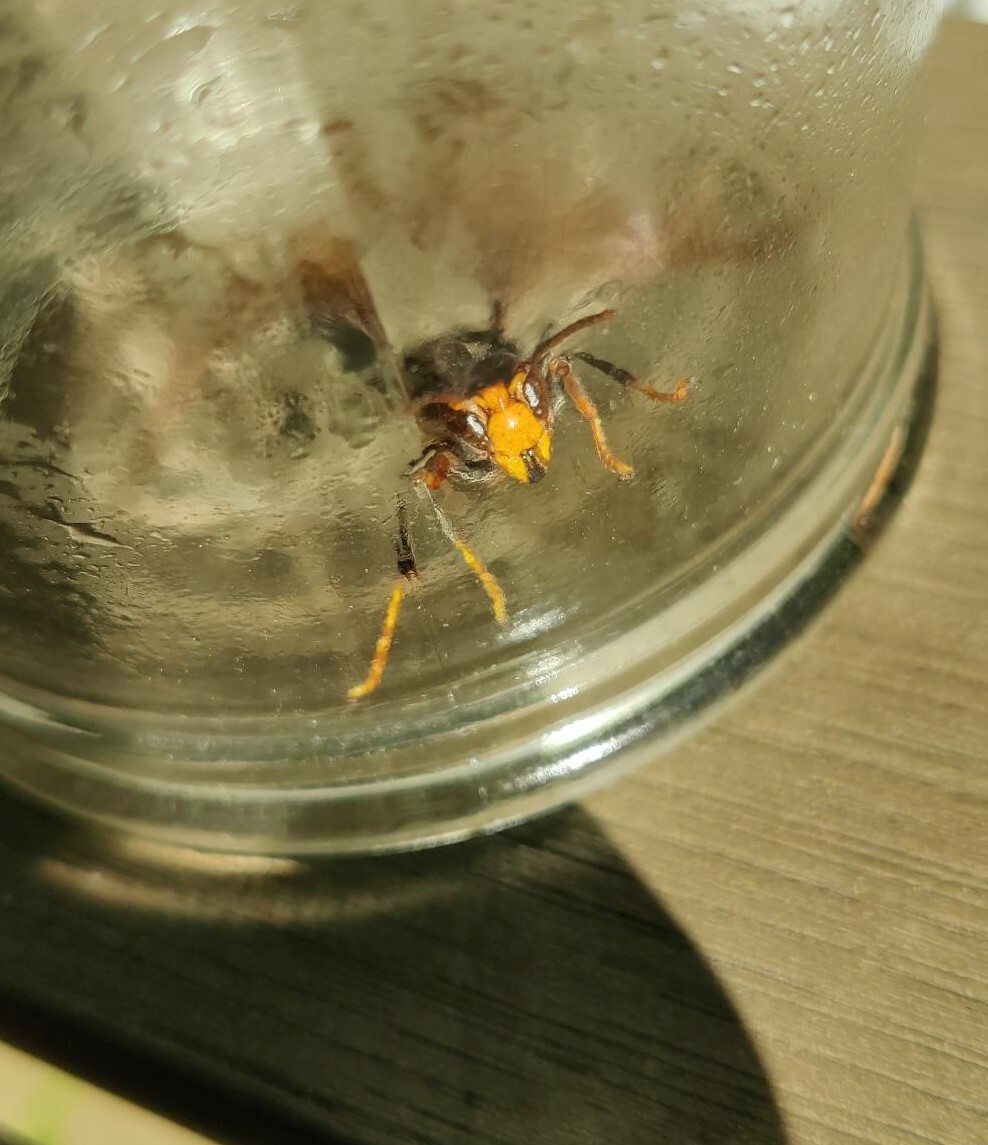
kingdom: Animalia
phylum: Arthropoda
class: Insecta
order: Hymenoptera
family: Vespidae
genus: Vespa
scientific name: Vespa velutina
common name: Asian hornet
